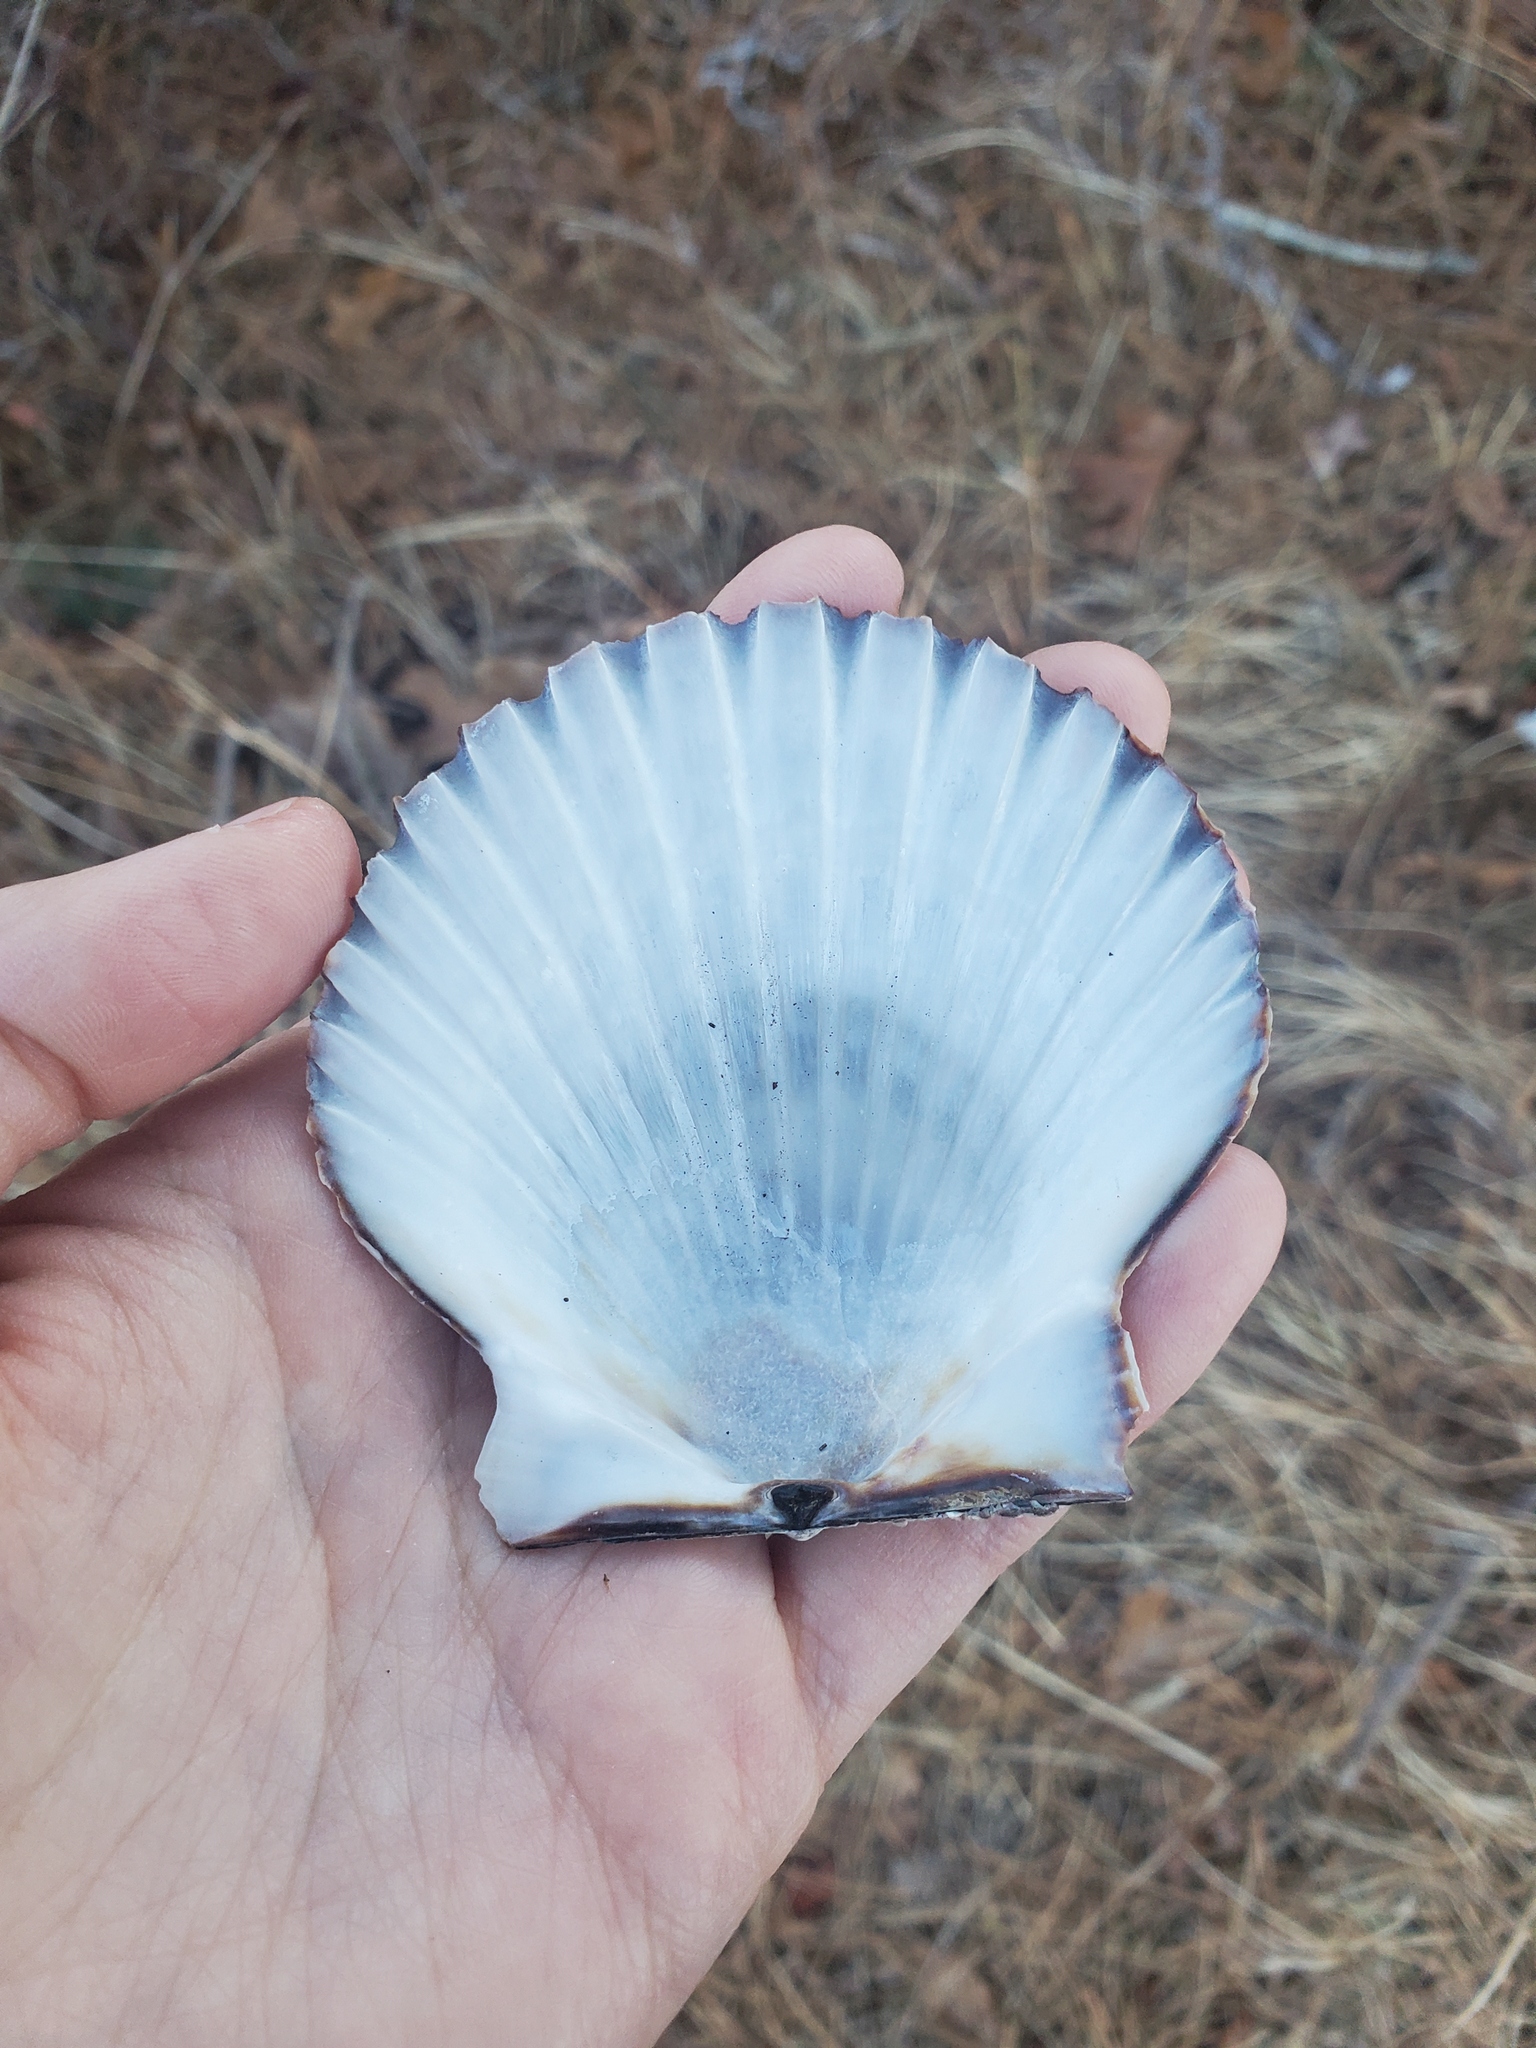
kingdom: Animalia
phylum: Mollusca
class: Bivalvia
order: Pectinida
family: Pectinidae
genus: Argopecten
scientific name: Argopecten irradians
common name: Atlantic bay scallop
